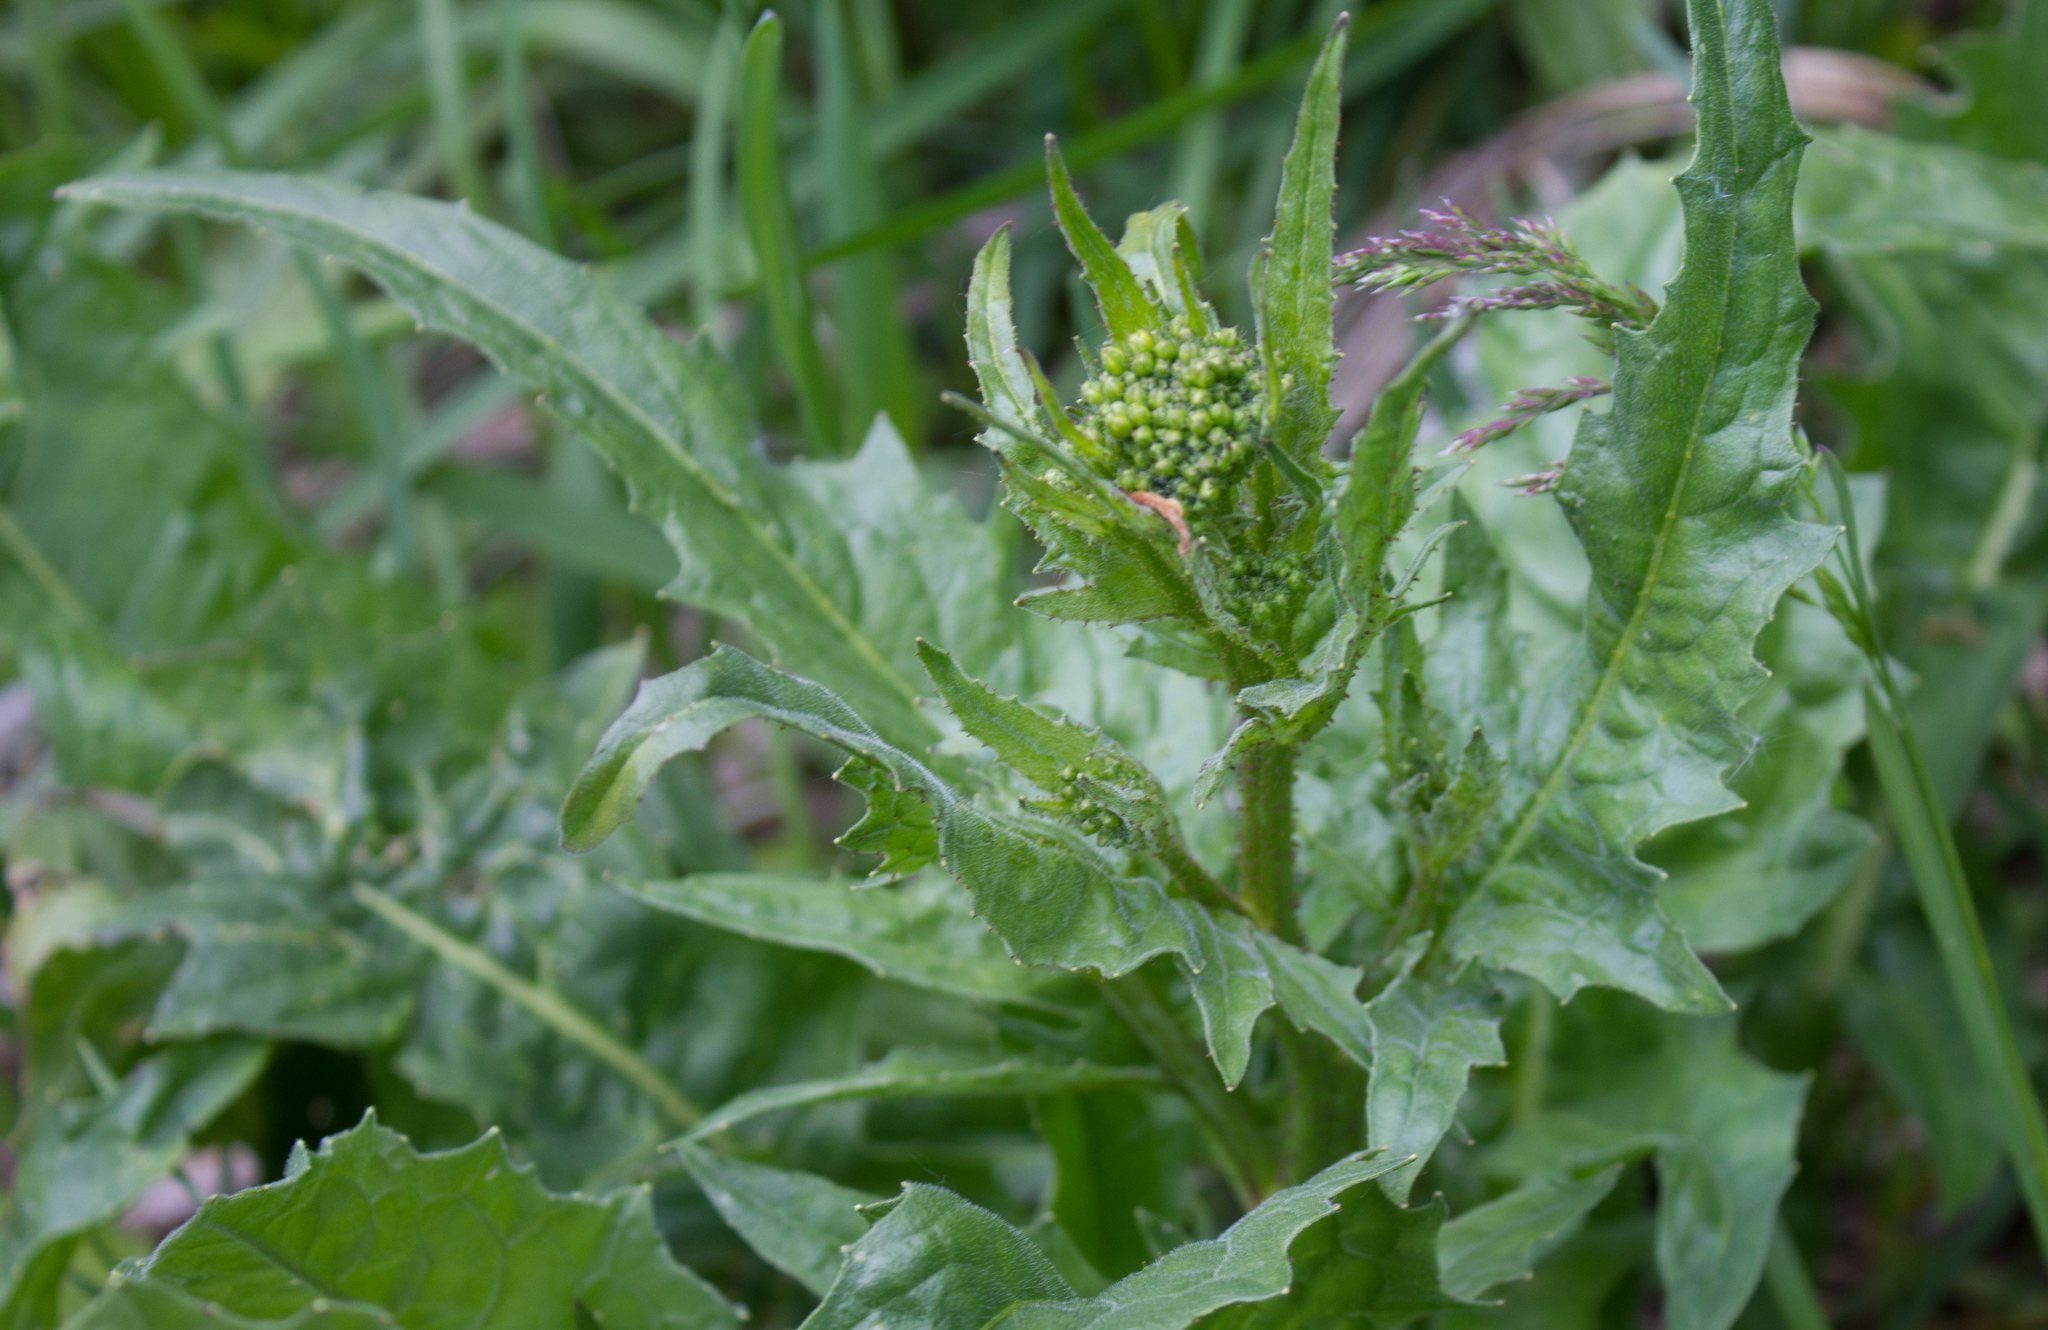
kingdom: Plantae
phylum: Tracheophyta
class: Magnoliopsida
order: Brassicales
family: Brassicaceae
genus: Bunias
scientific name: Bunias orientalis
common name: Warty-cabbage
